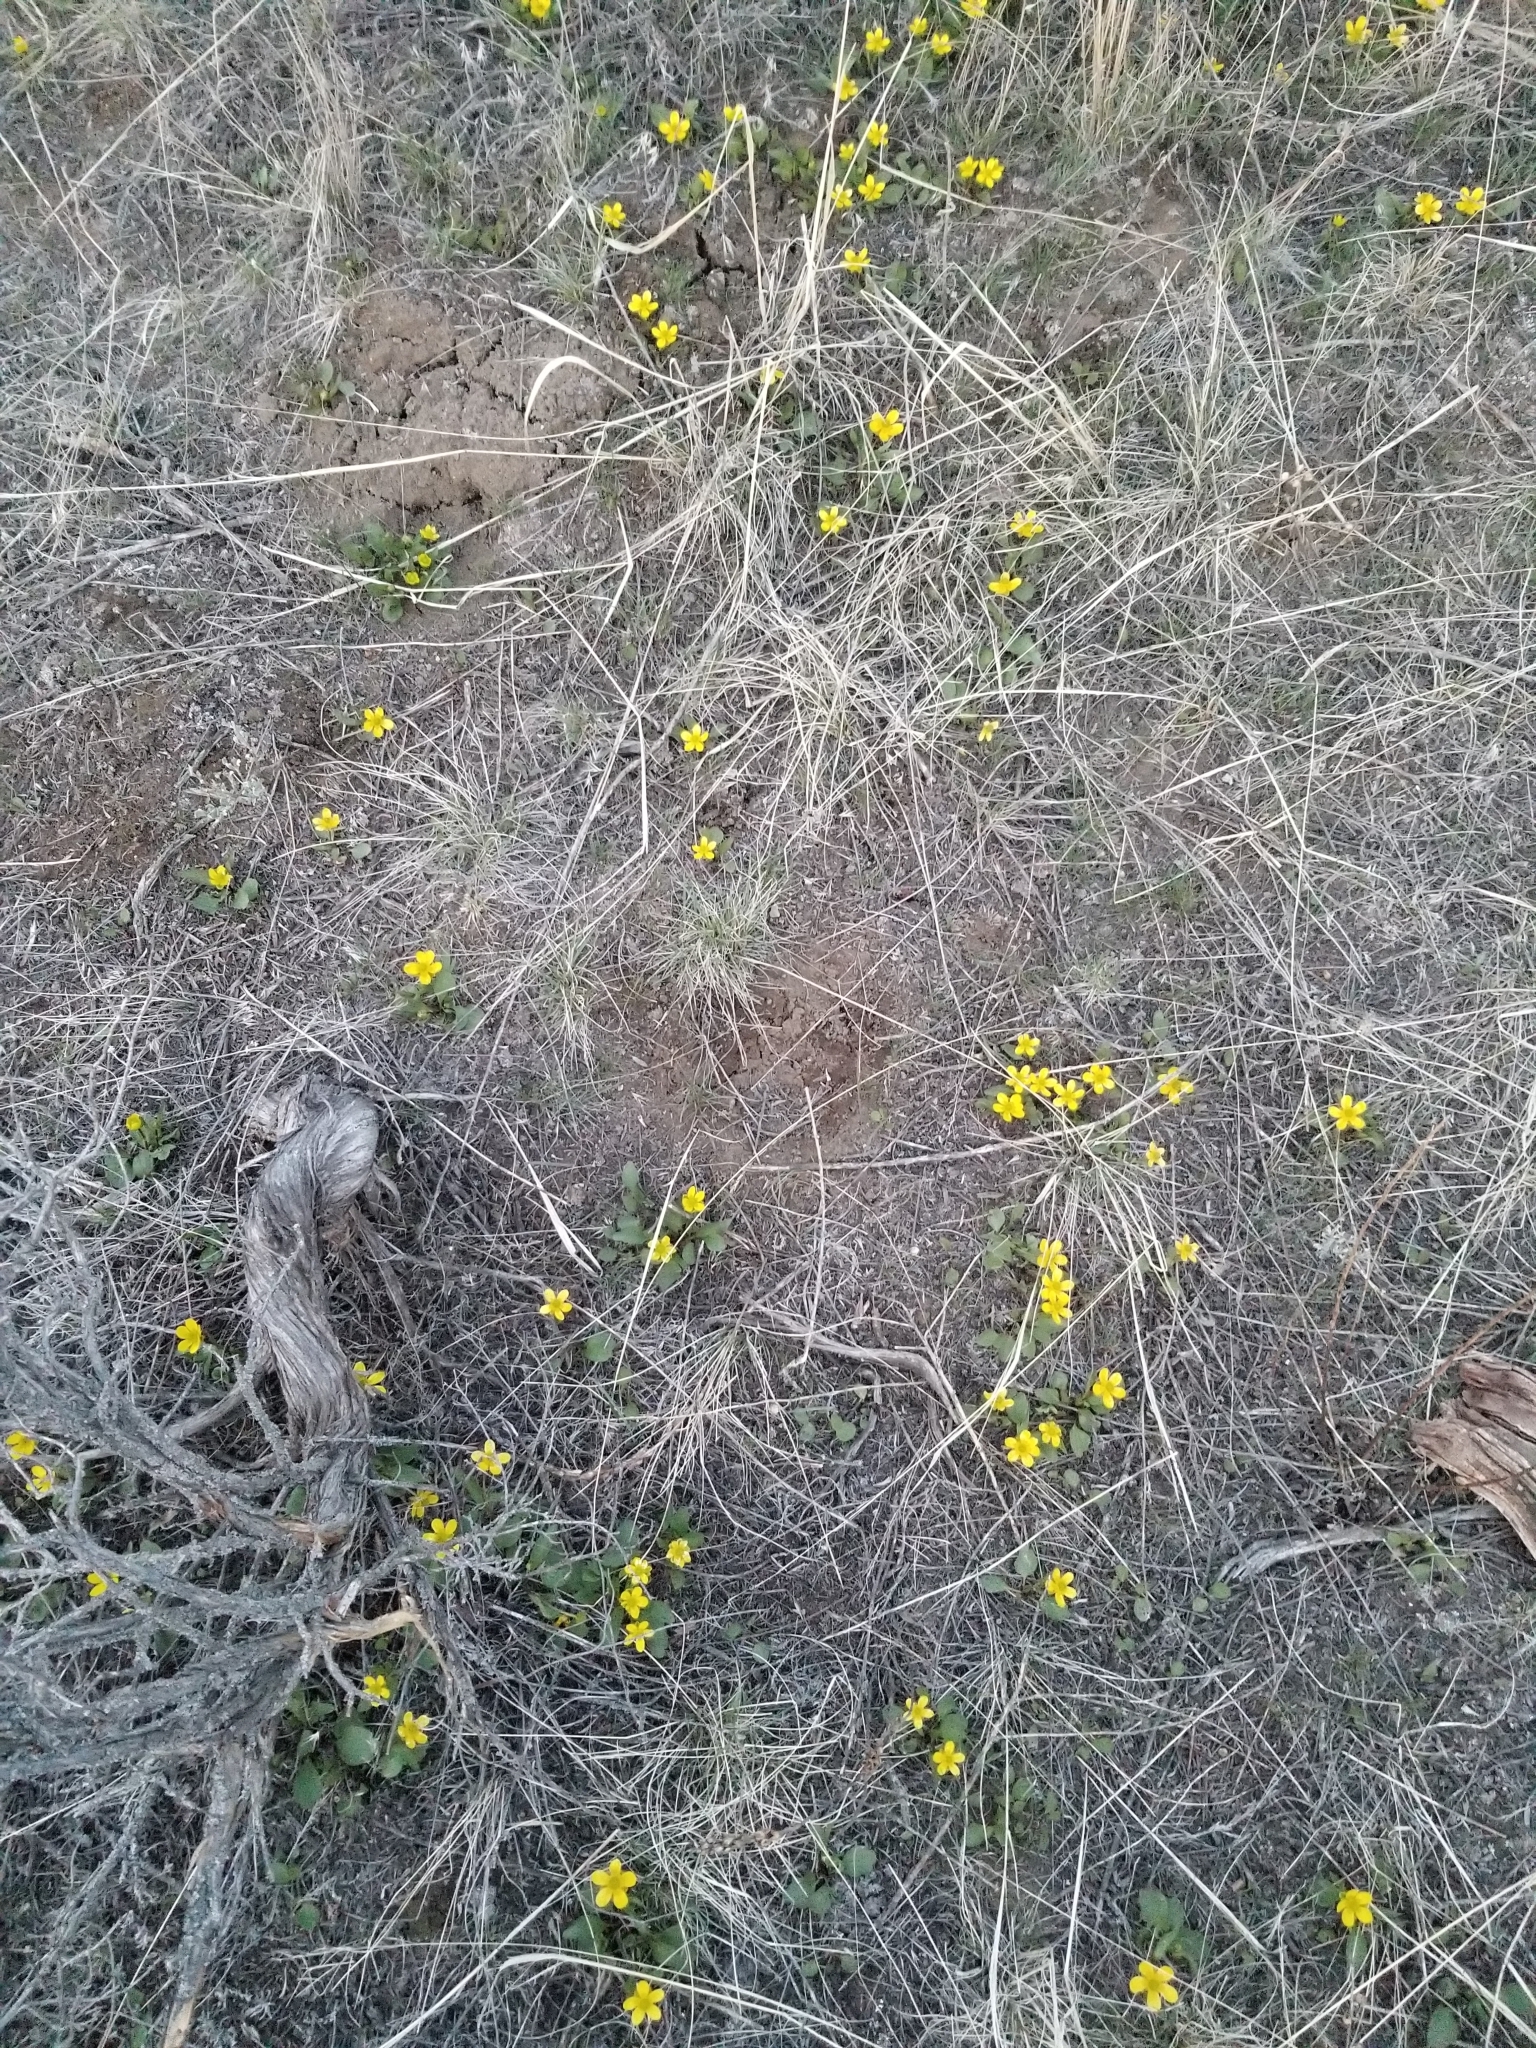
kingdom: Plantae
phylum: Tracheophyta
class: Magnoliopsida
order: Ranunculales
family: Ranunculaceae
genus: Ranunculus
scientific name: Ranunculus glaberrimus
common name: Sagebrush buttercup
